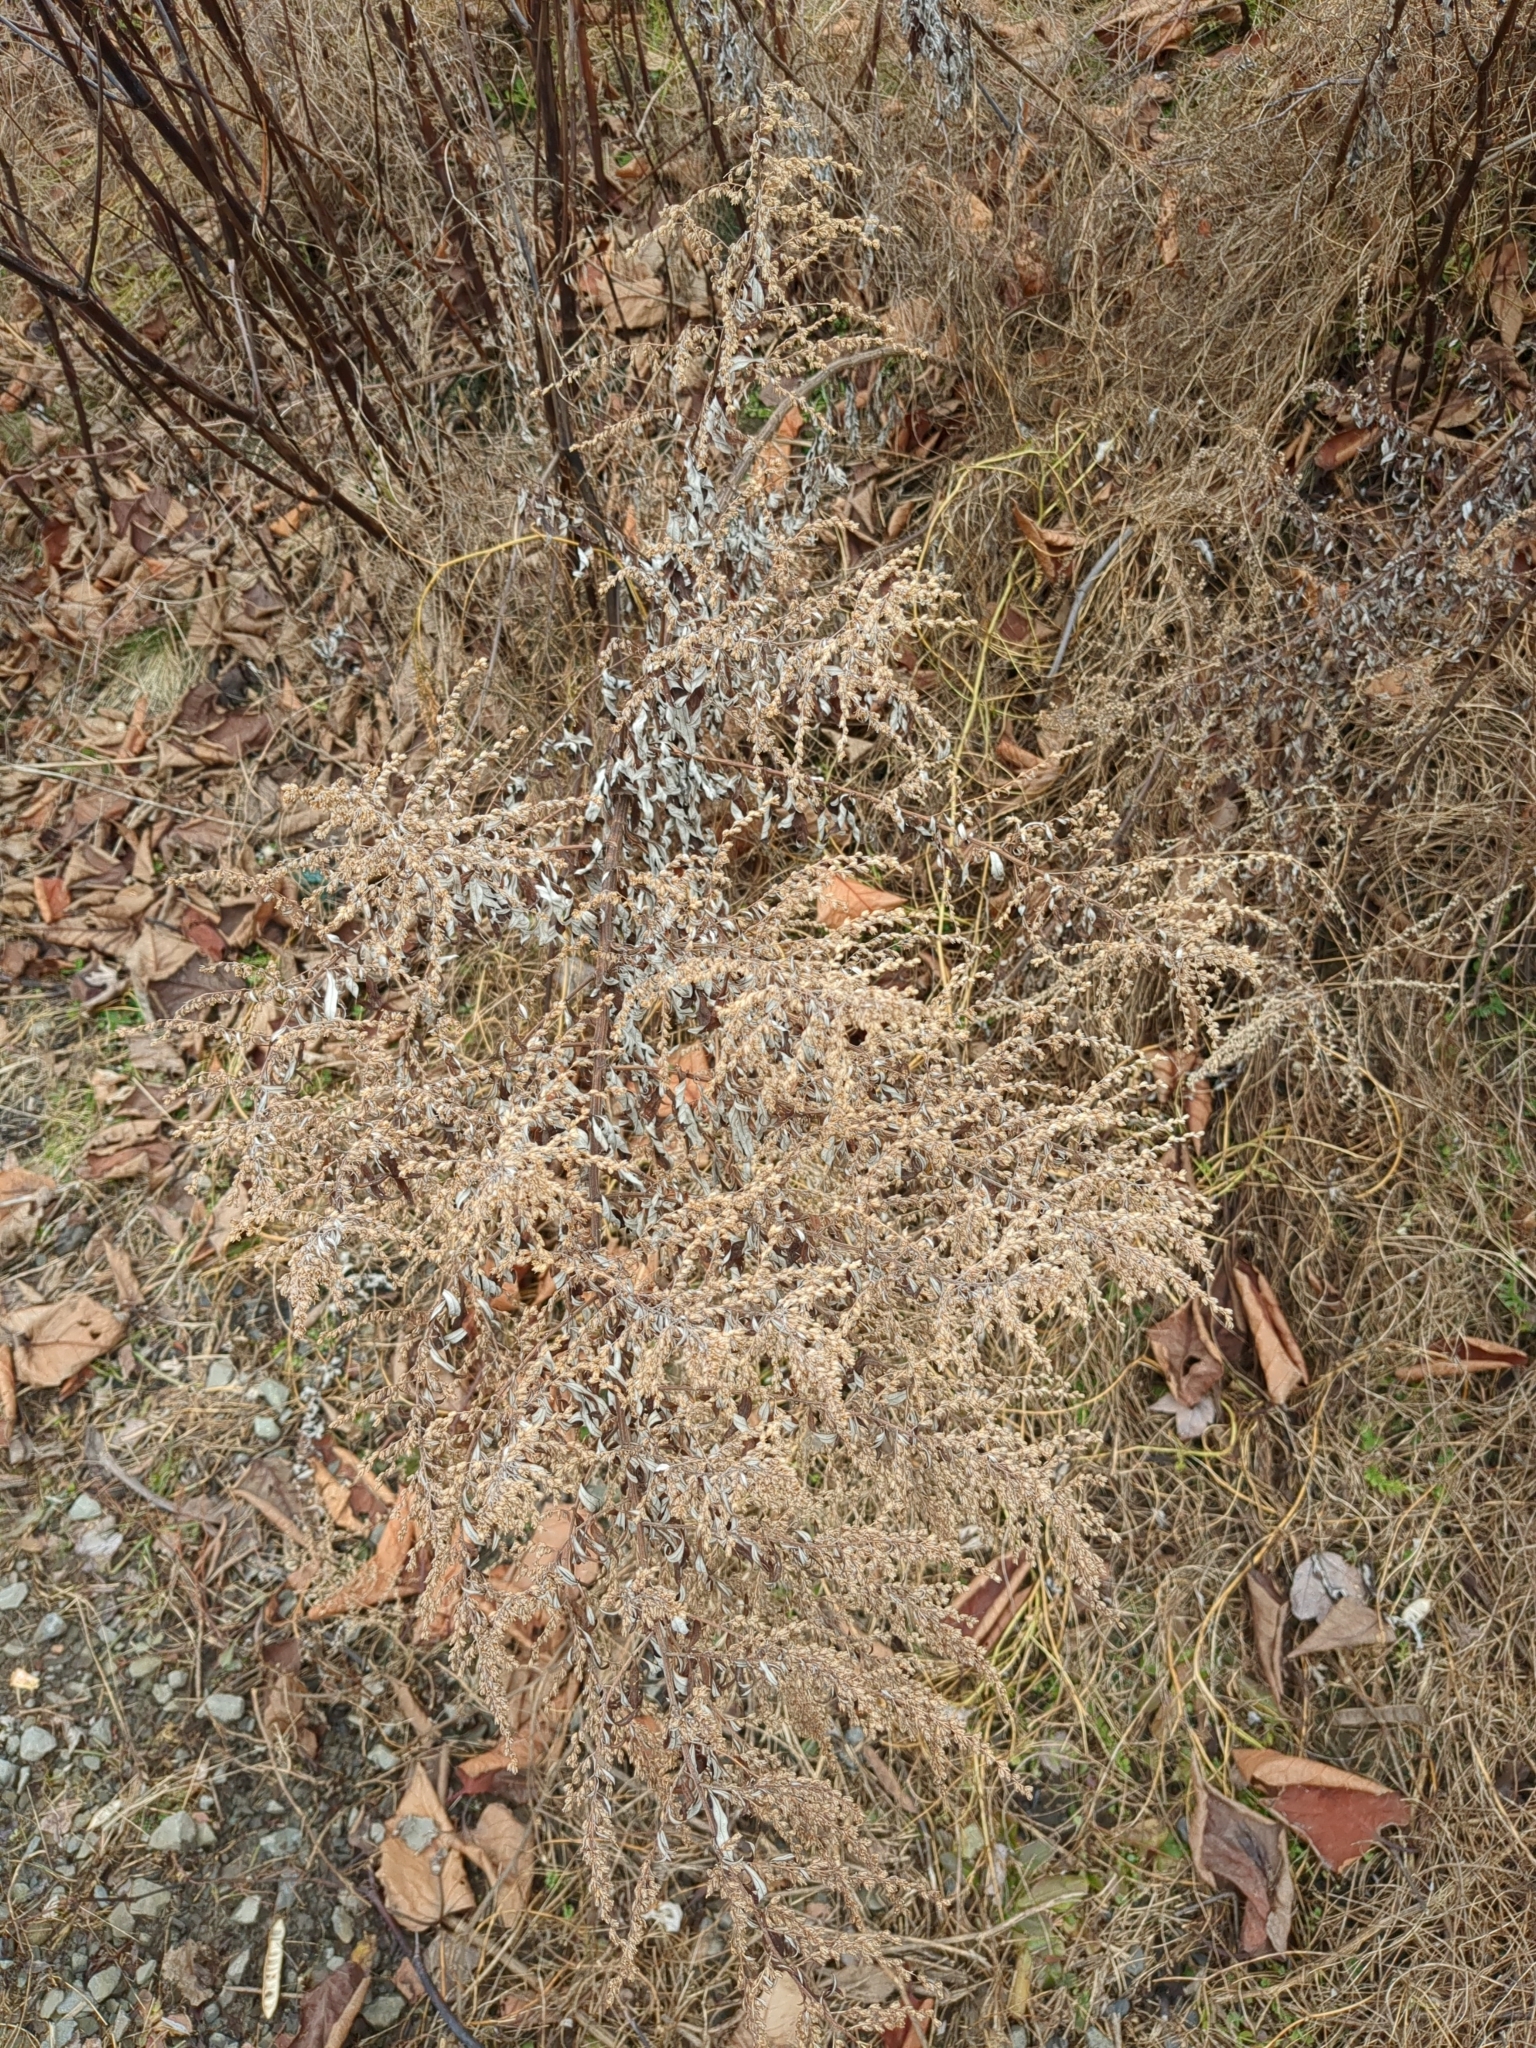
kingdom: Plantae
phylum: Tracheophyta
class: Magnoliopsida
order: Asterales
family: Asteraceae
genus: Artemisia
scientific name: Artemisia vulgaris
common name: Mugwort
